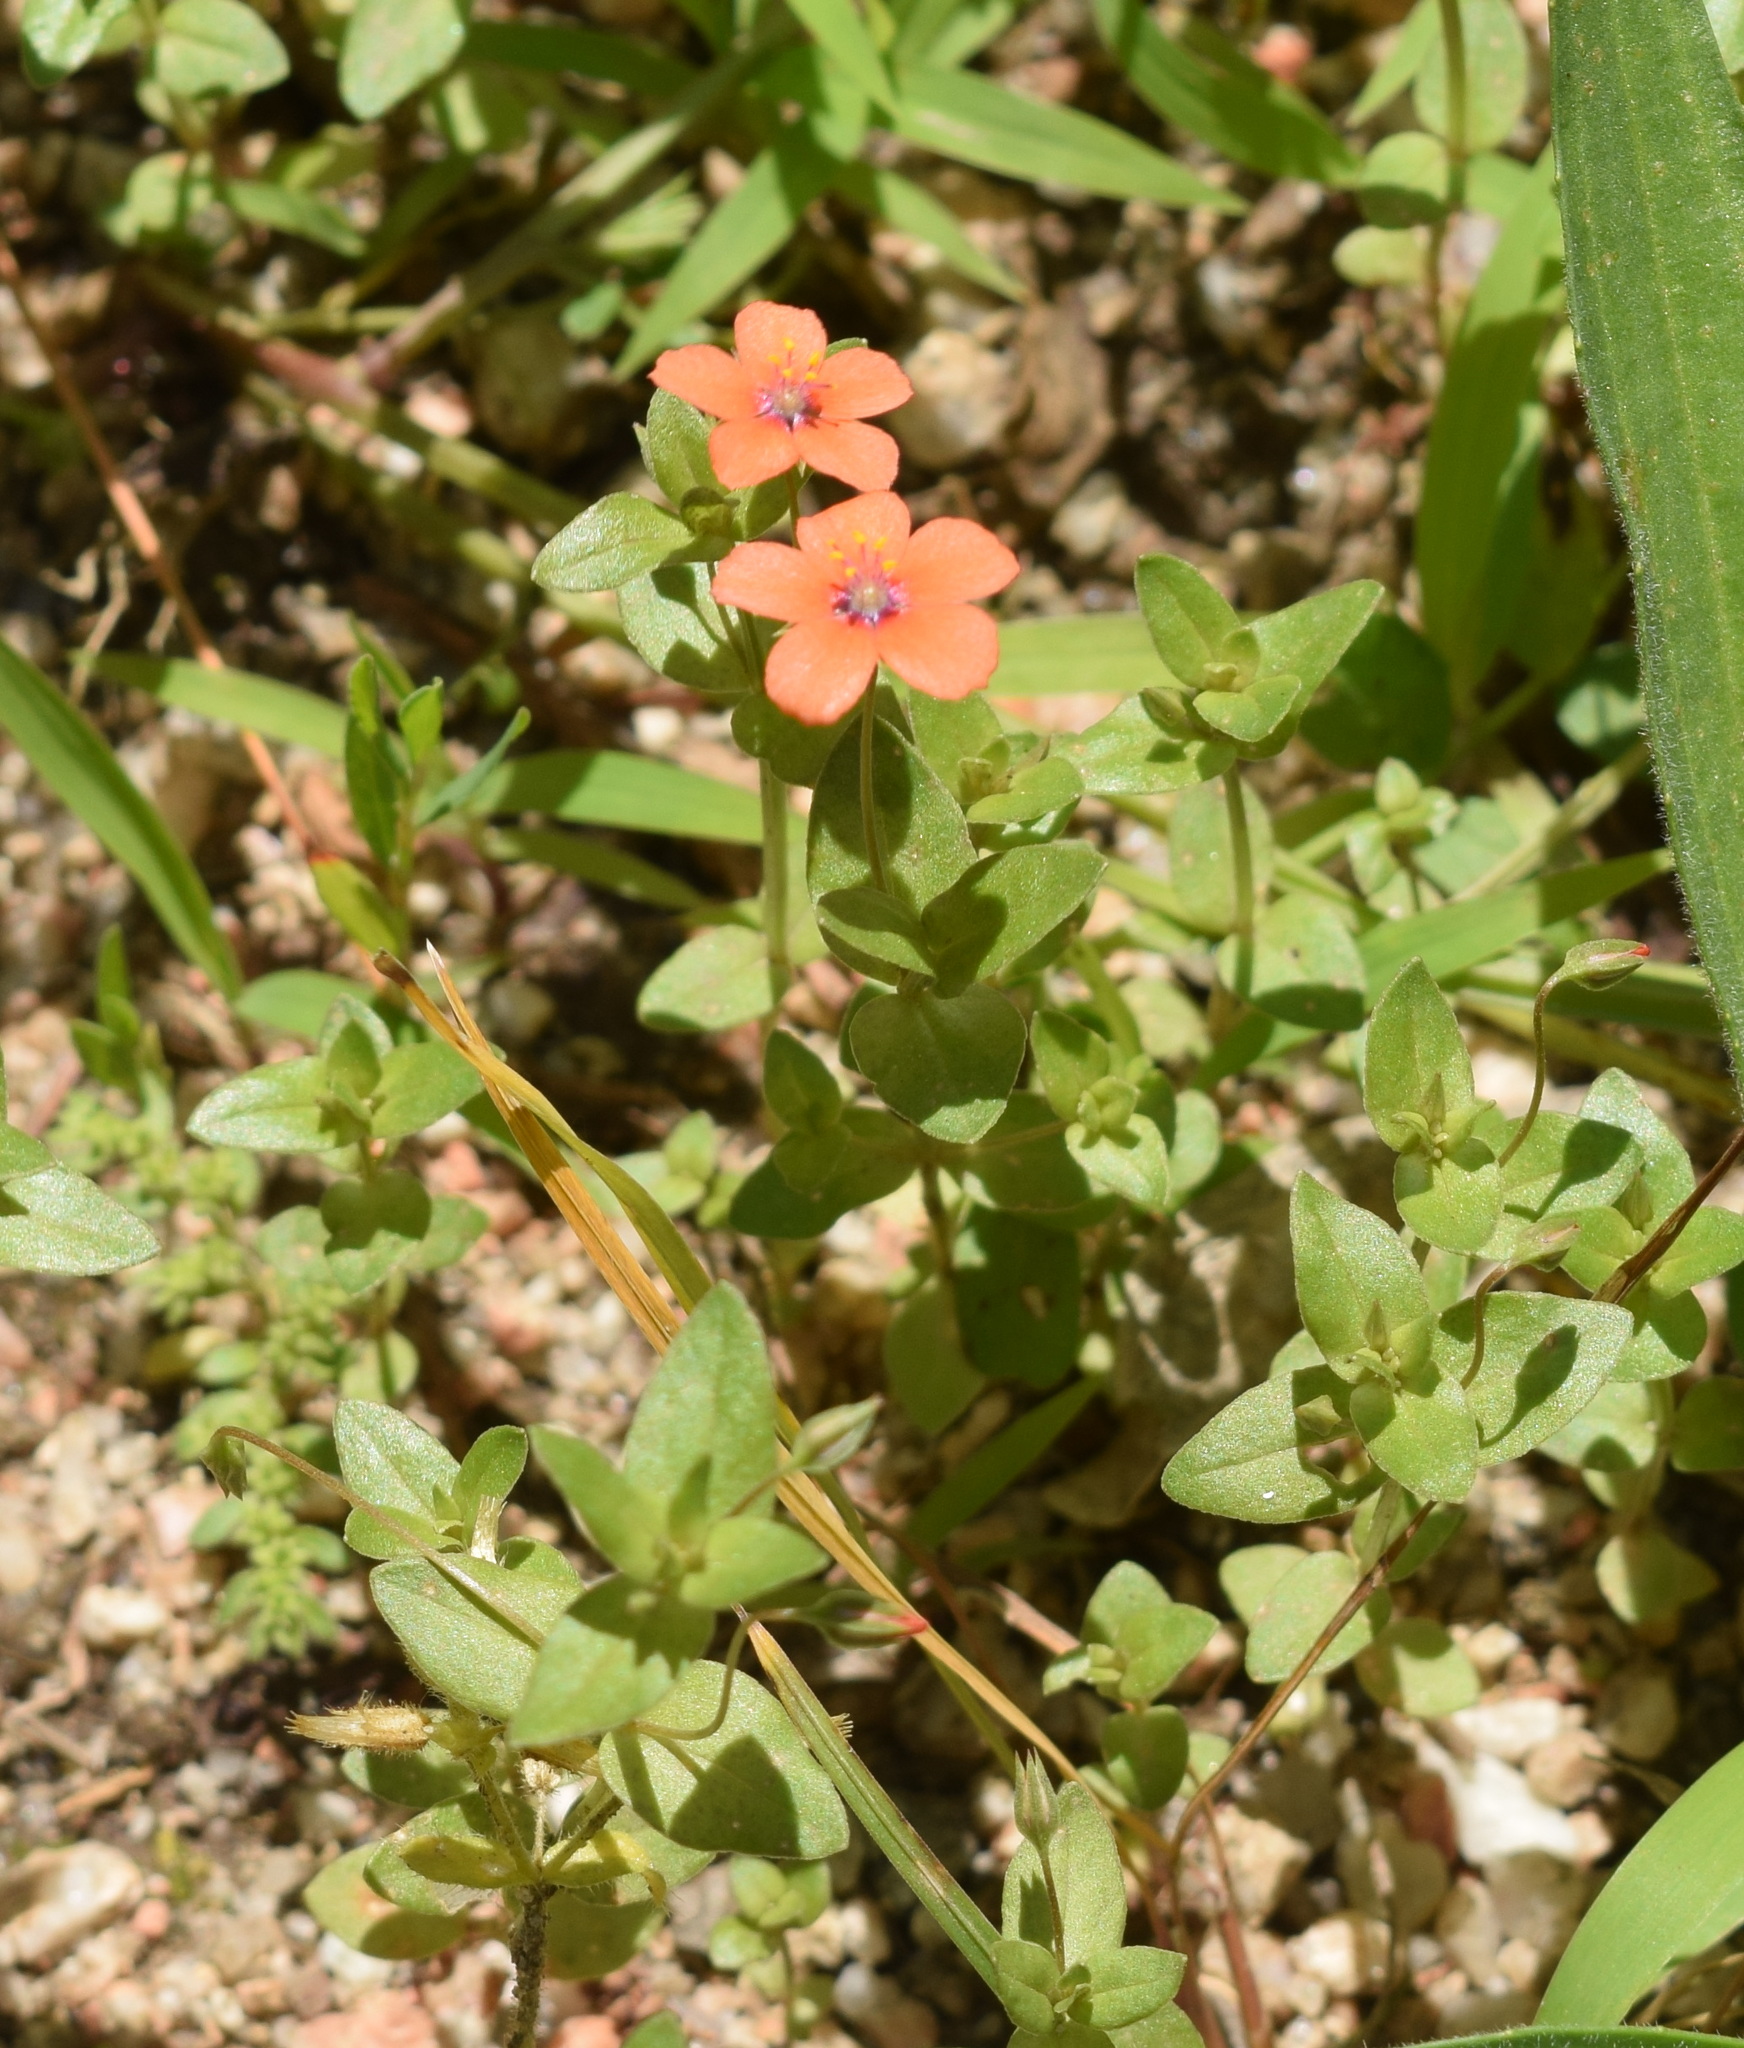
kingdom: Plantae
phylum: Tracheophyta
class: Magnoliopsida
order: Ericales
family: Primulaceae
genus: Lysimachia
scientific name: Lysimachia arvensis
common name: Scarlet pimpernel
